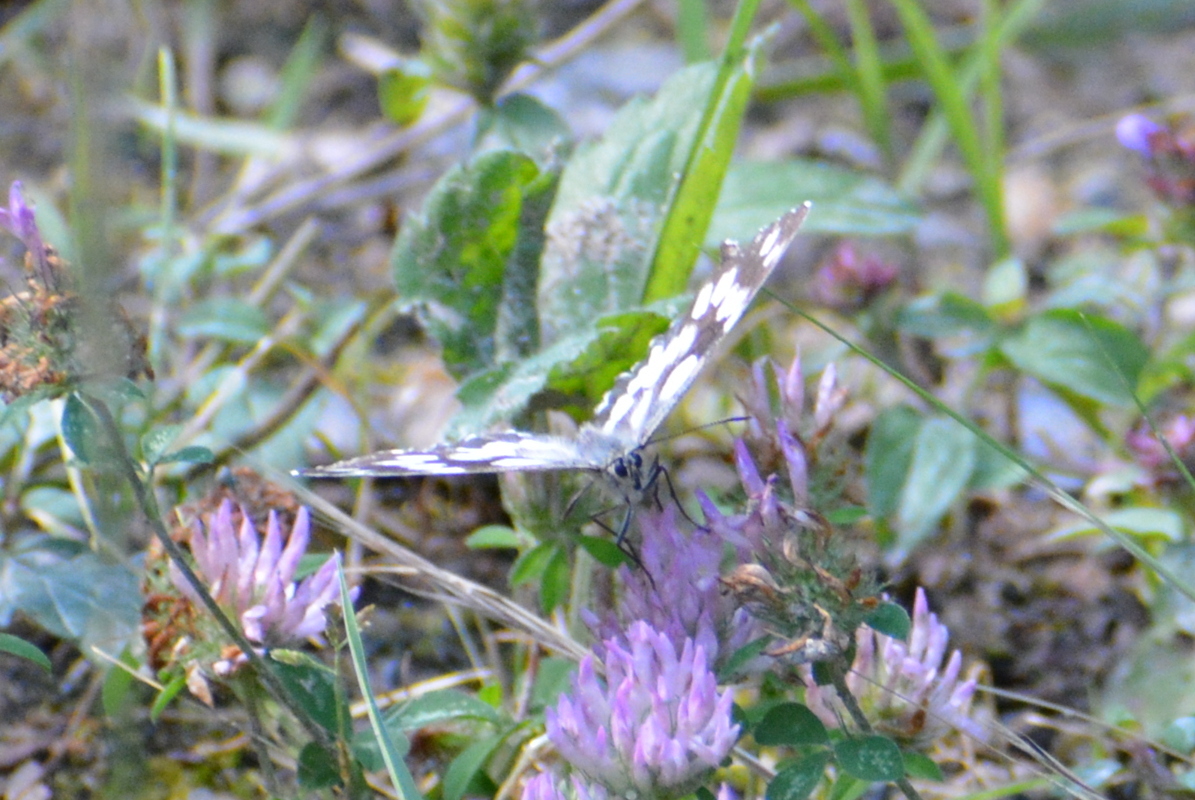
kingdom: Animalia
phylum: Arthropoda
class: Insecta
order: Lepidoptera
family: Nymphalidae
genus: Melanargia
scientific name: Melanargia galathea
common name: Marbled white
